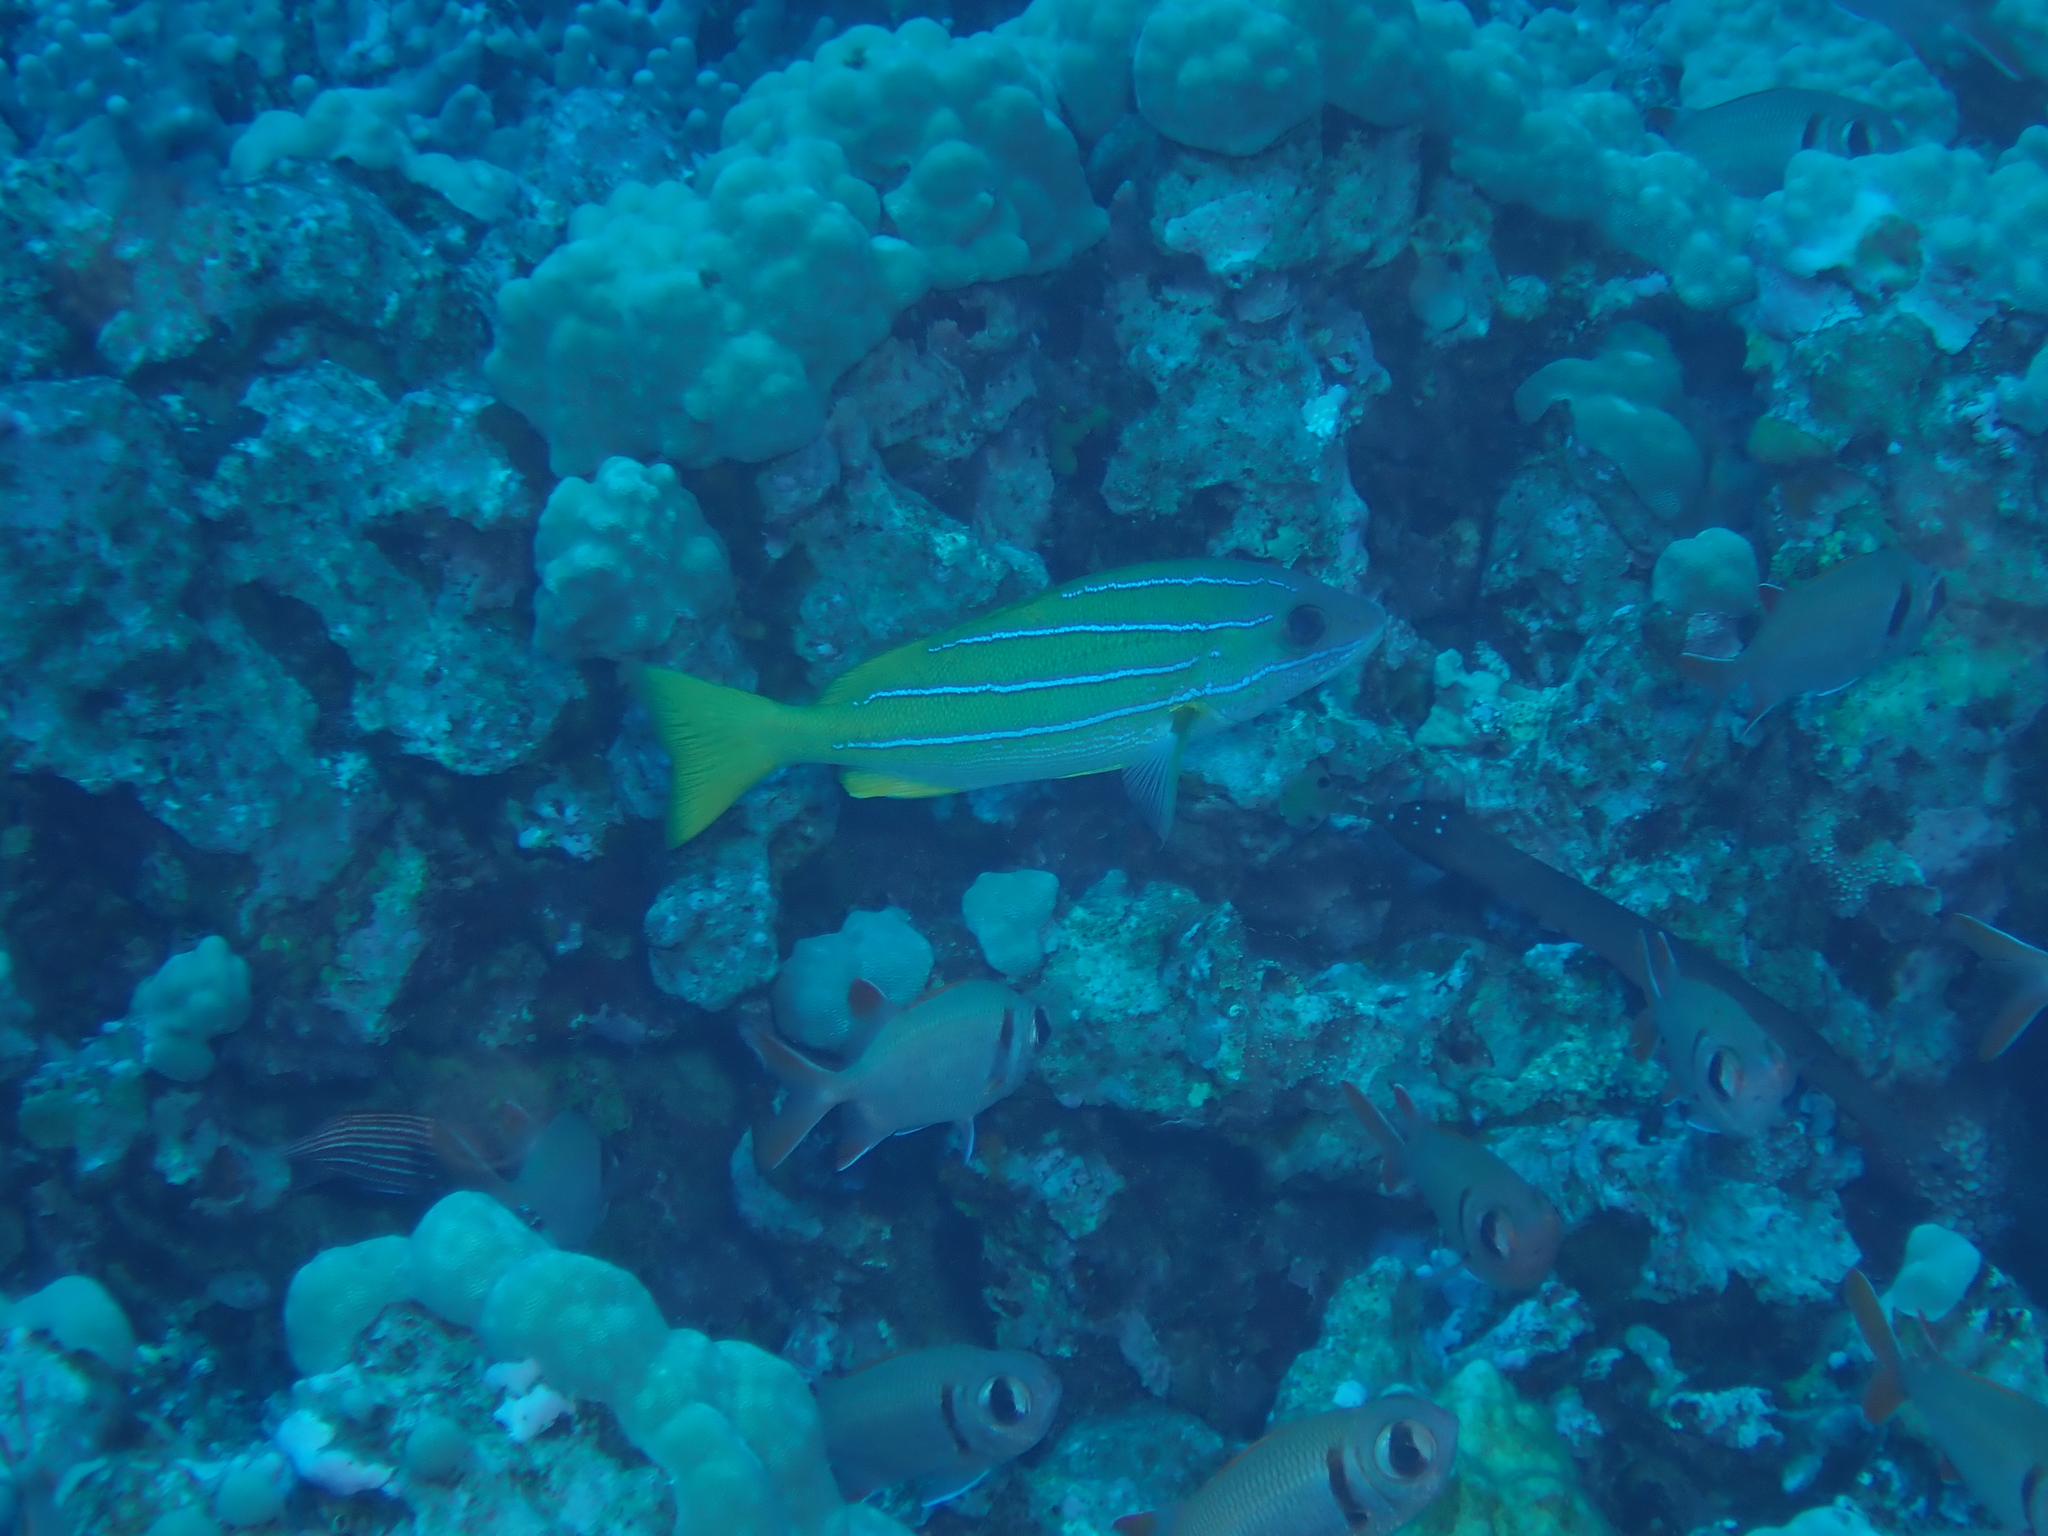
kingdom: Animalia
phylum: Chordata
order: Perciformes
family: Lutjanidae
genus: Lutjanus
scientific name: Lutjanus kasmira
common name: Common bluestripe snapper
